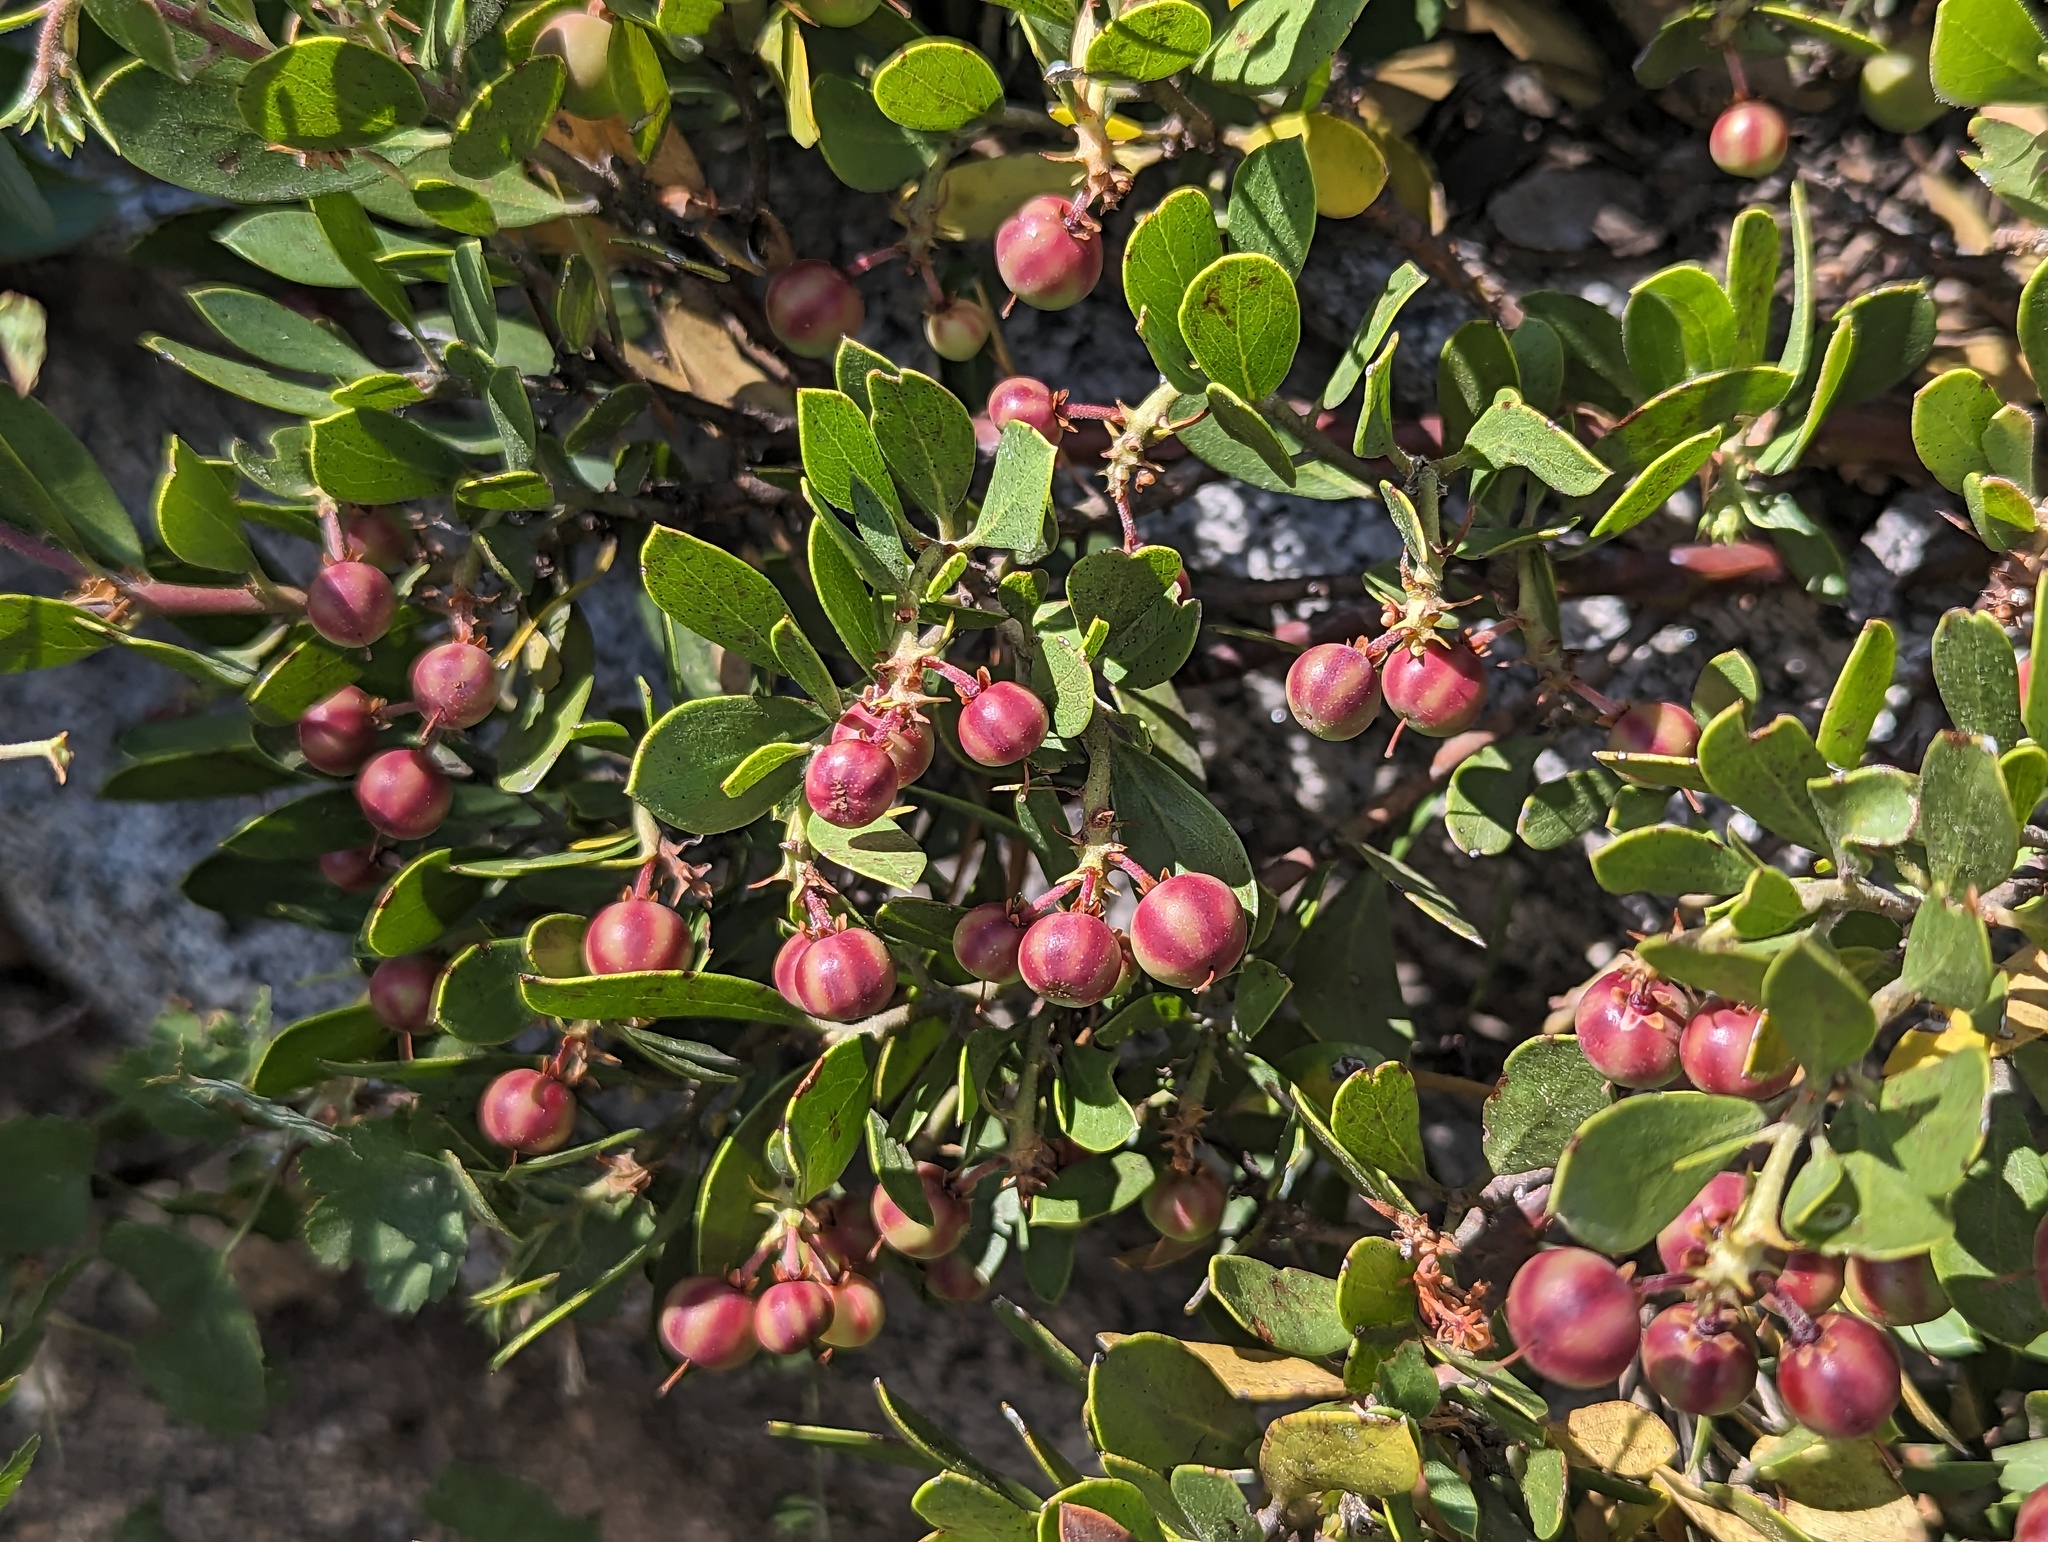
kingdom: Plantae
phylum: Tracheophyta
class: Magnoliopsida
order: Ericales
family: Ericaceae
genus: Arctostaphylos
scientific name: Arctostaphylos nevadensis
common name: Pinemat manzanita
